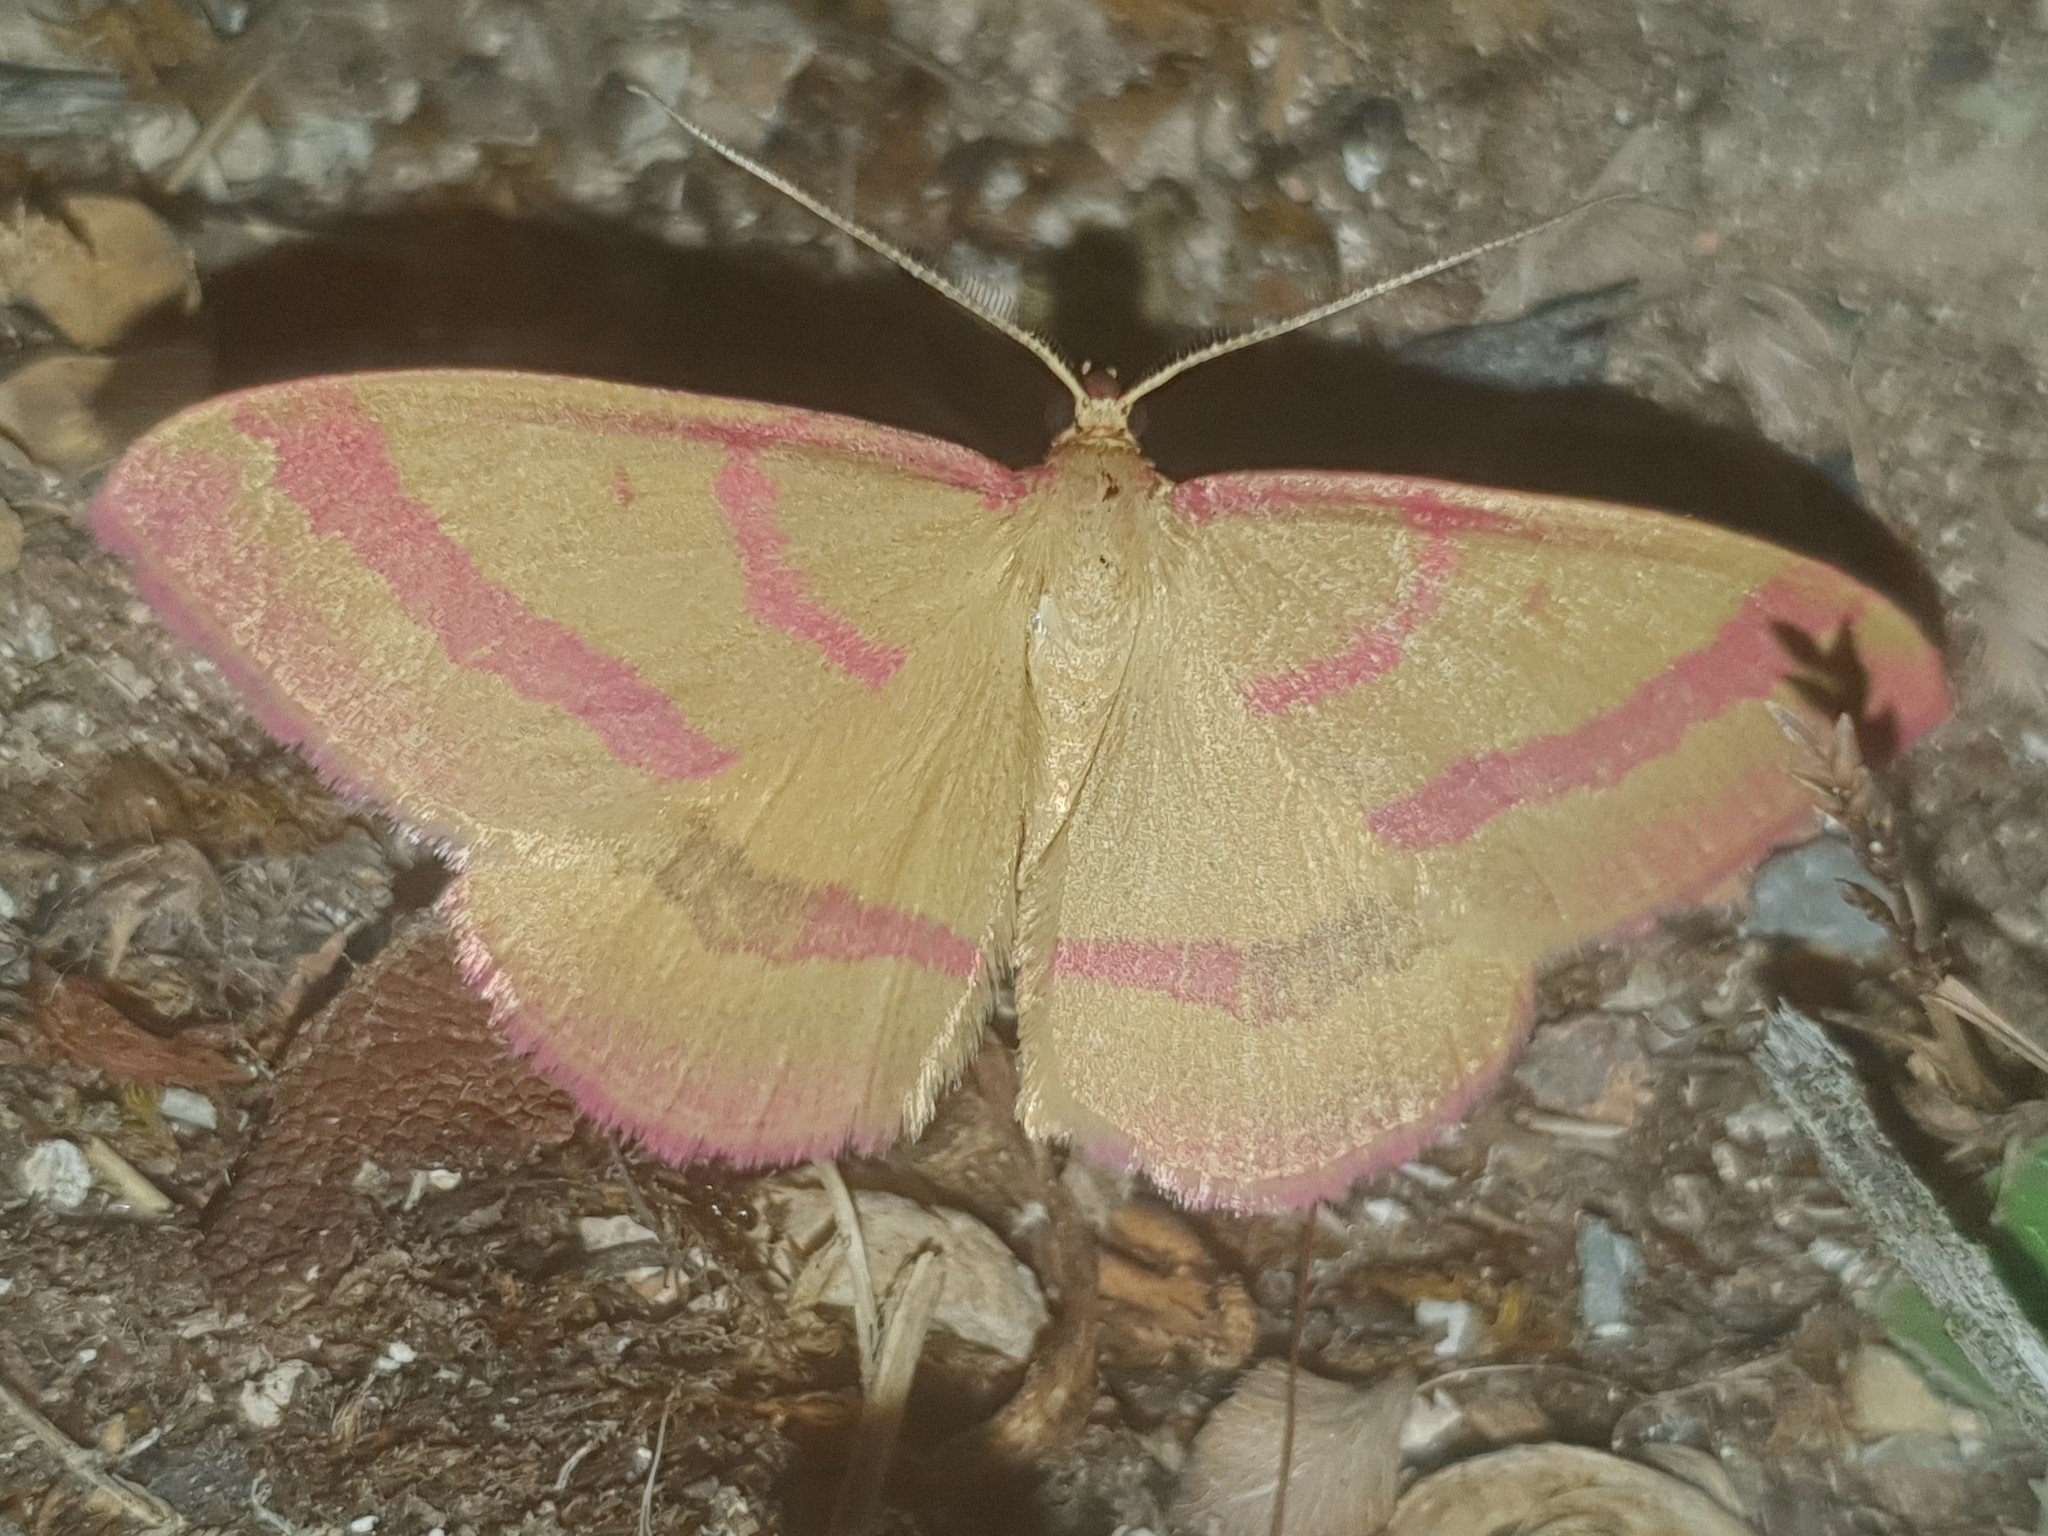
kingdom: Animalia
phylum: Arthropoda
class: Insecta
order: Lepidoptera
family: Geometridae
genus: Rhodostrophia
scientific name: Rhodostrophia calabra
